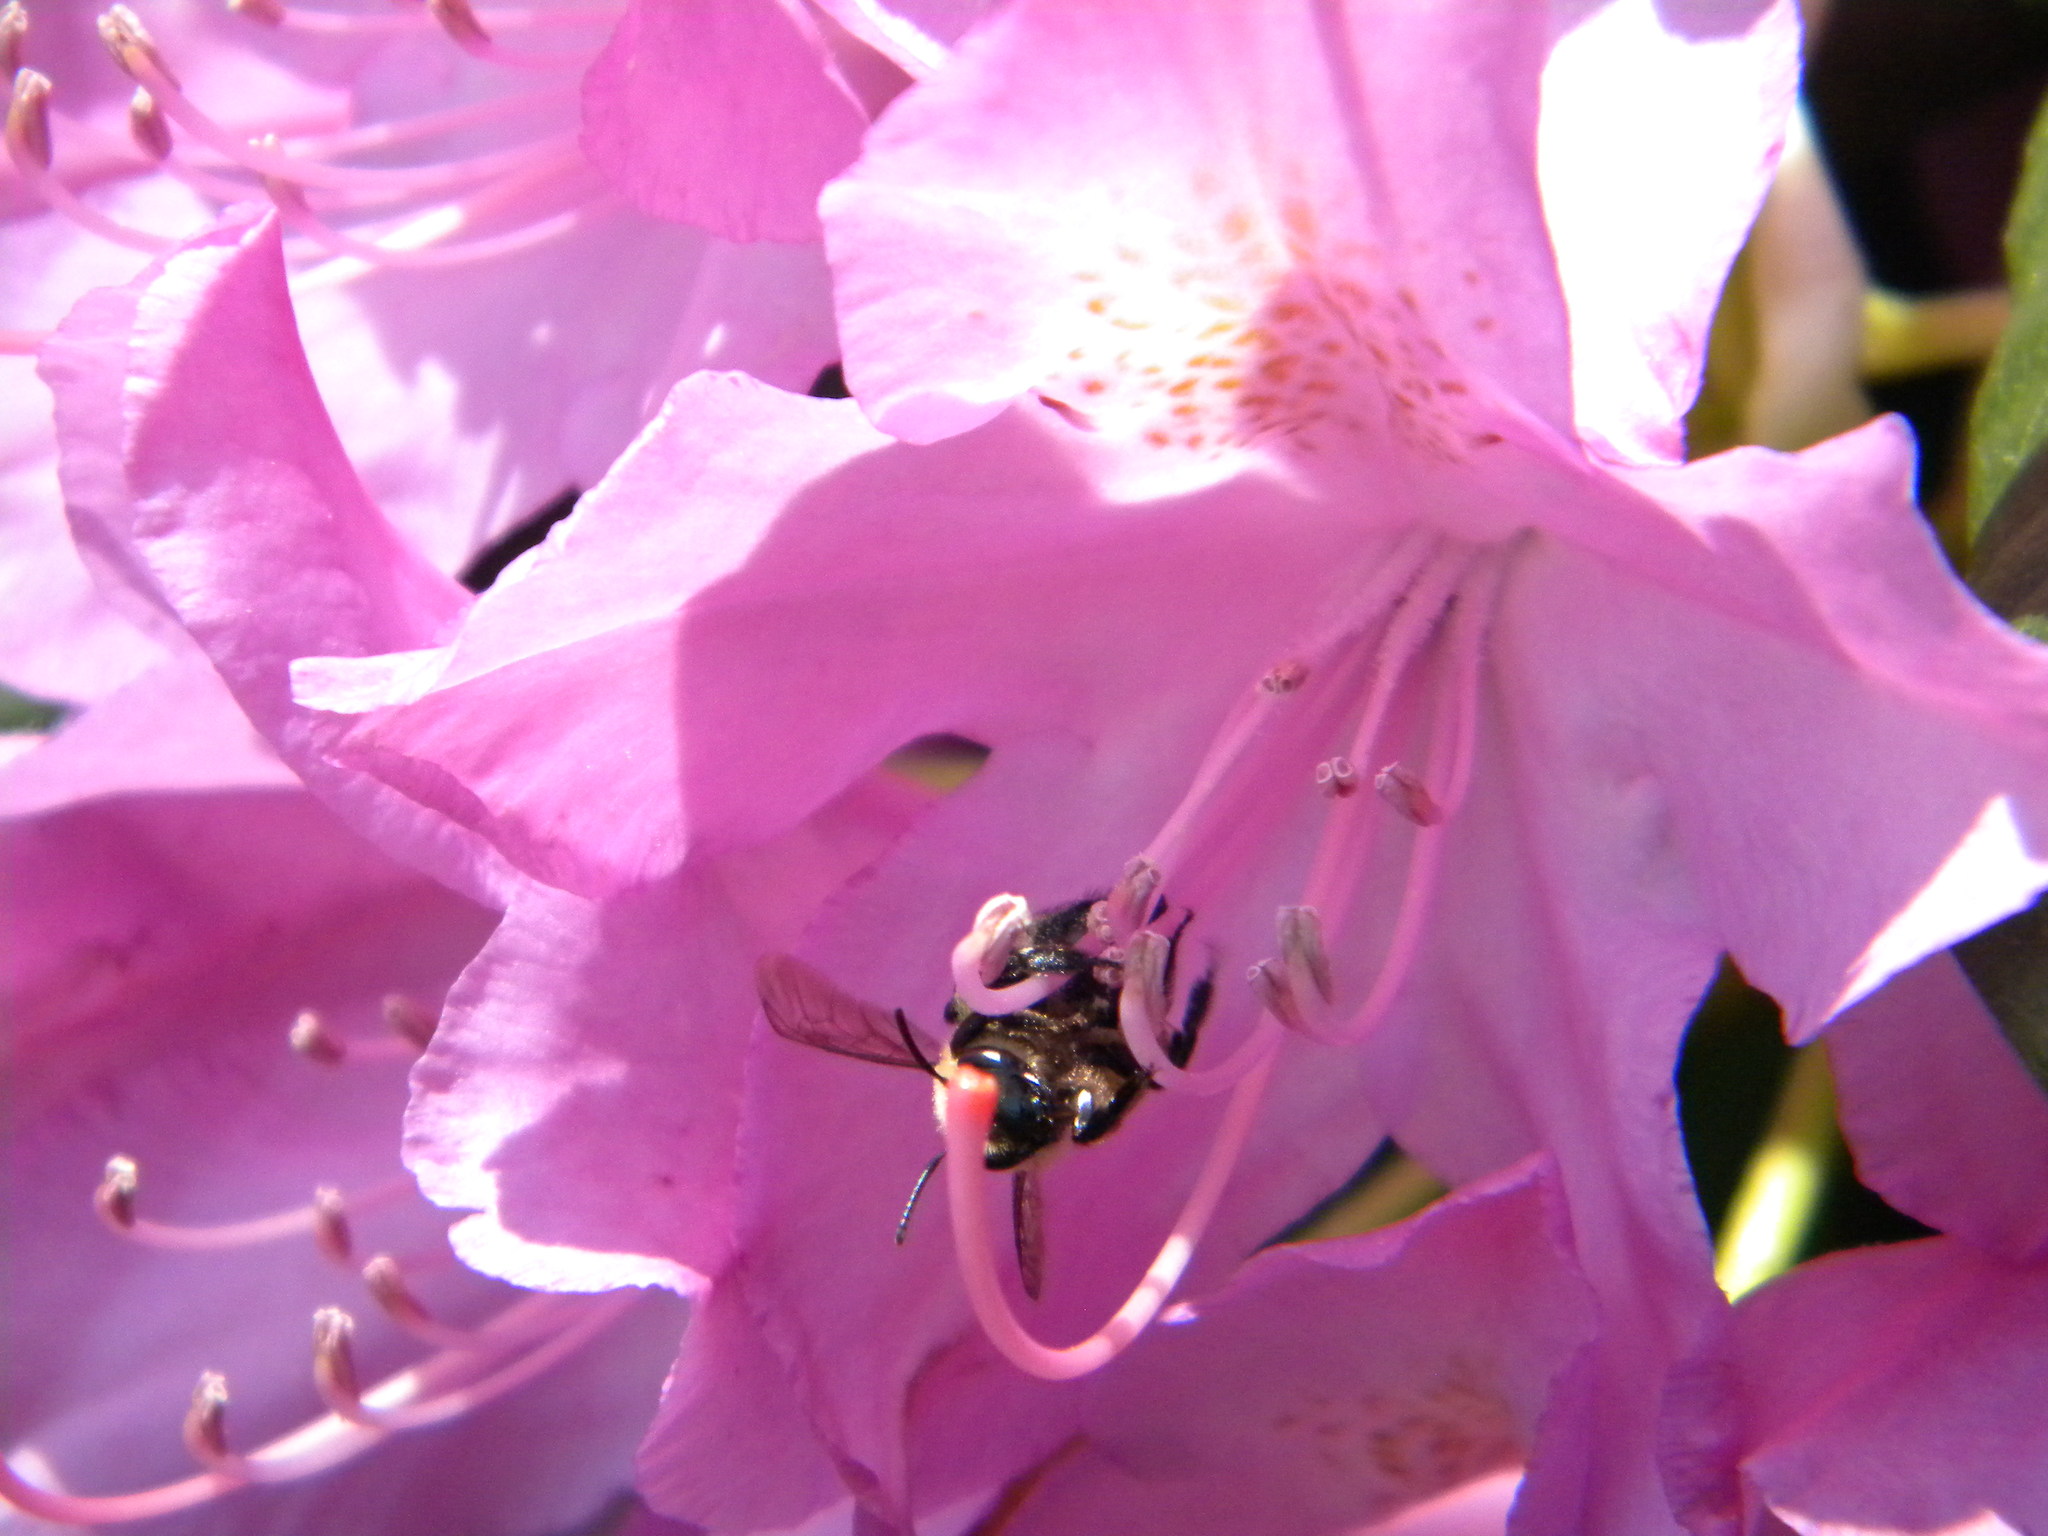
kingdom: Animalia
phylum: Arthropoda
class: Insecta
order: Hymenoptera
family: Apidae
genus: Bombus
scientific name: Bombus impatiens
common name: Common eastern bumble bee
